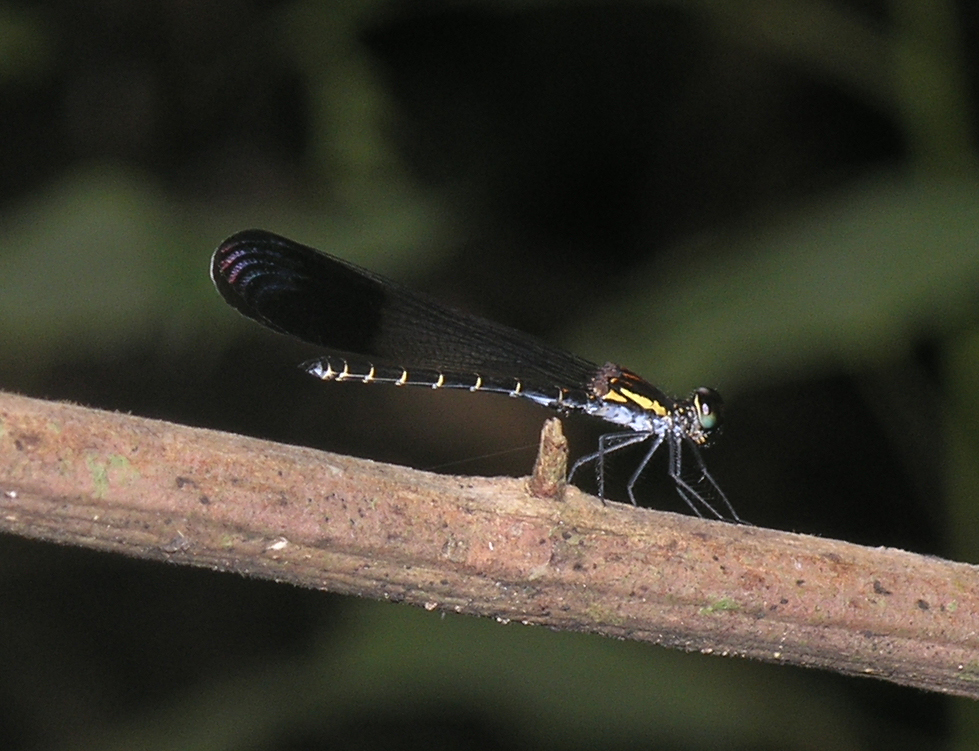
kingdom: Animalia
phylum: Arthropoda
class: Insecta
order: Odonata
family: Chlorocyphidae
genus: Rhinocypha
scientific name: Rhinocypha seducta
